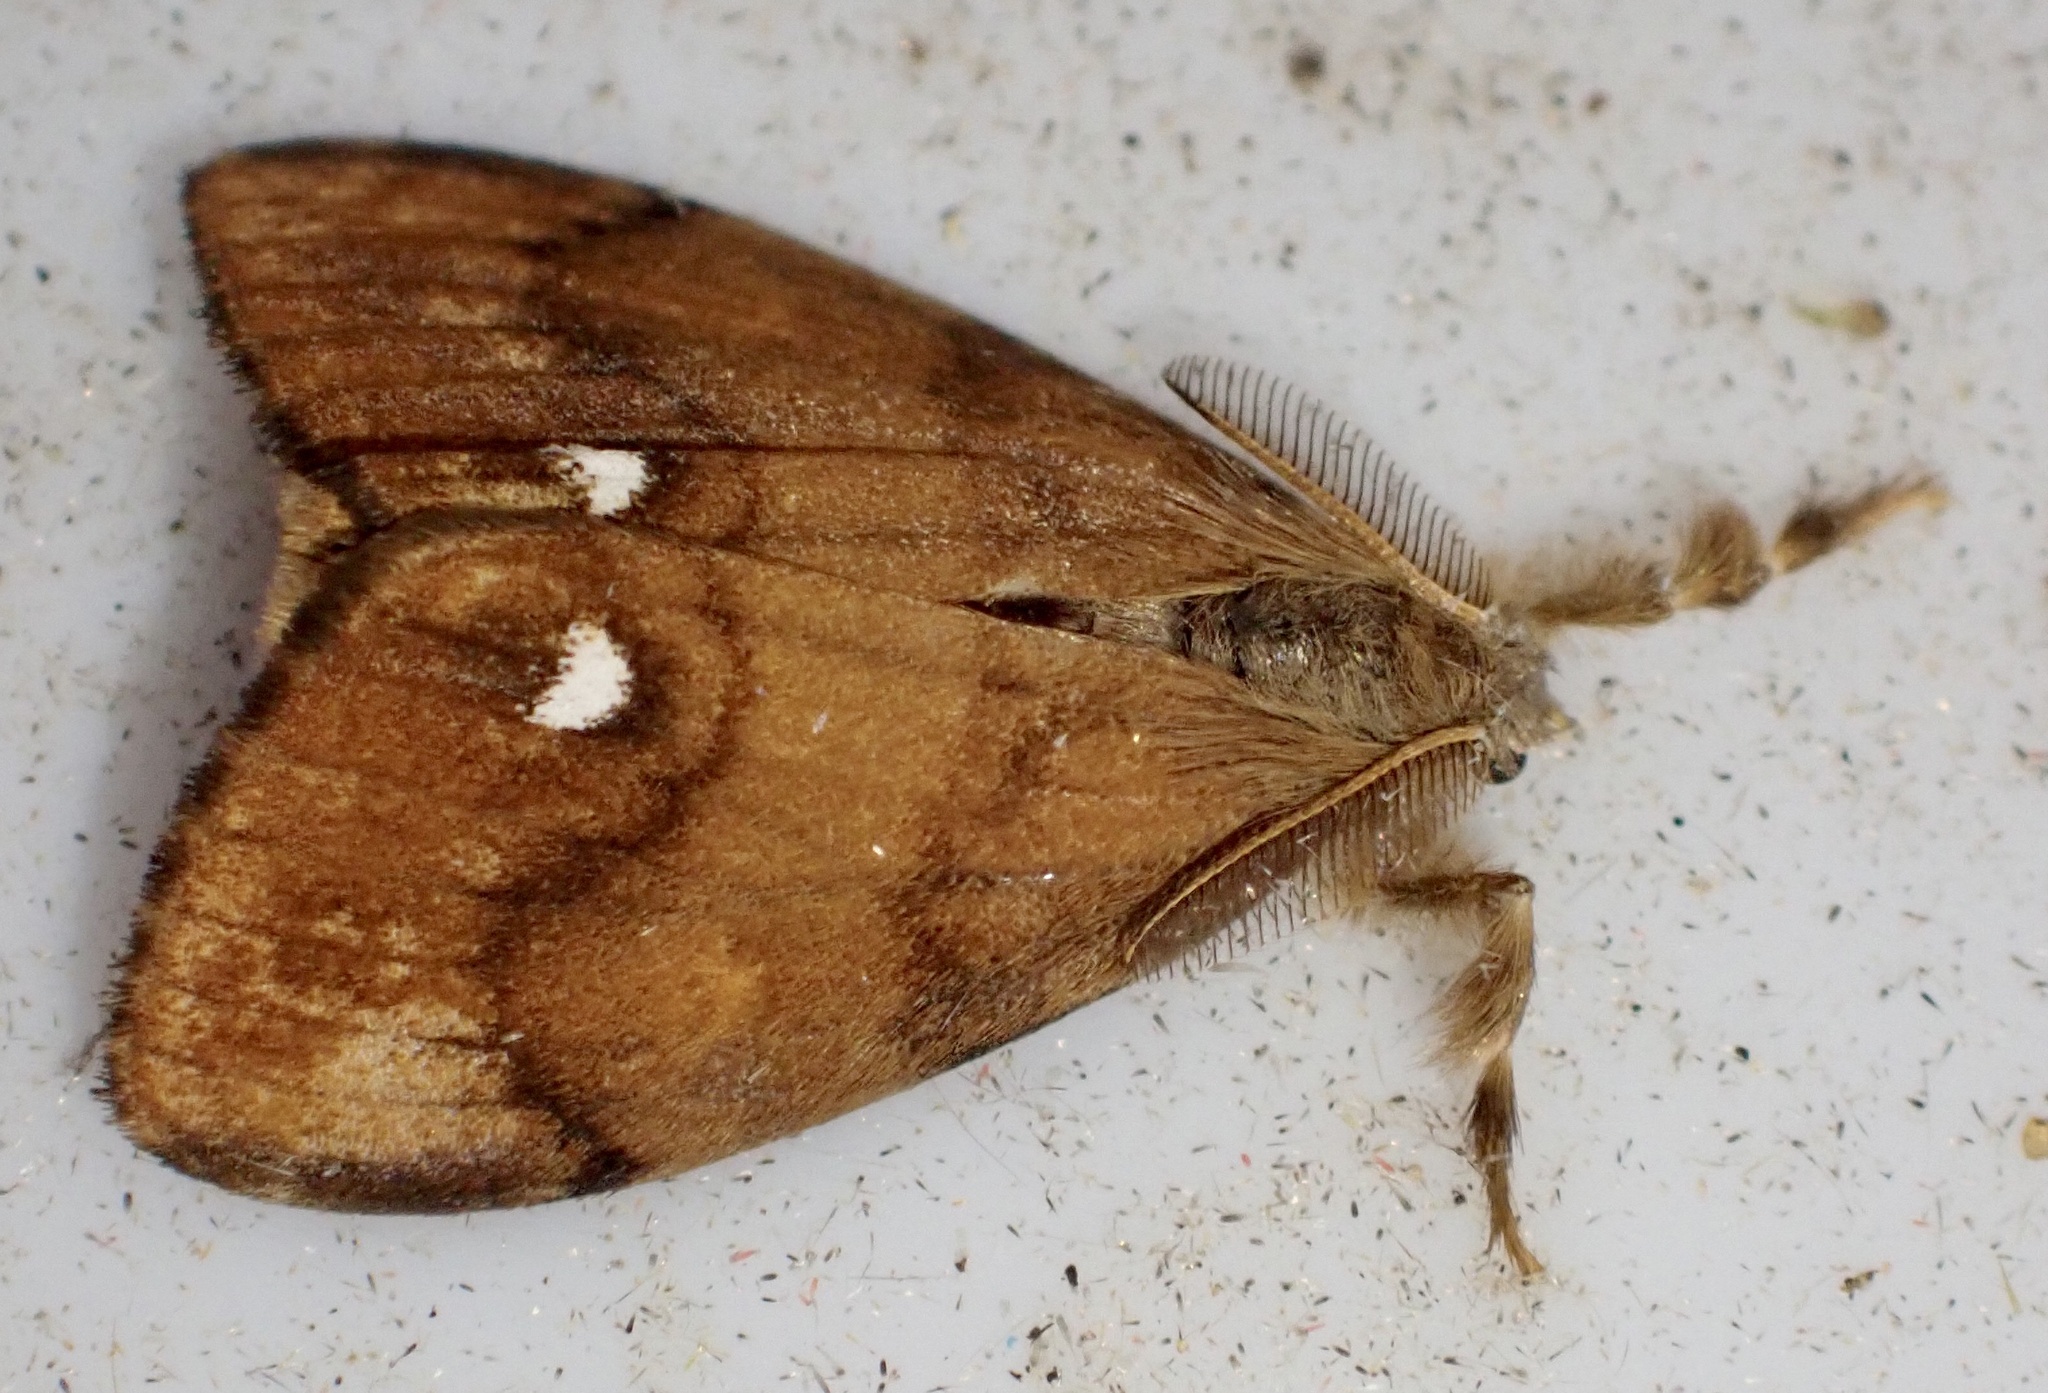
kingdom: Animalia
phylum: Arthropoda
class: Insecta
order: Lepidoptera
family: Erebidae
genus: Orgyia
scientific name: Orgyia antiqua
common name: Vapourer
